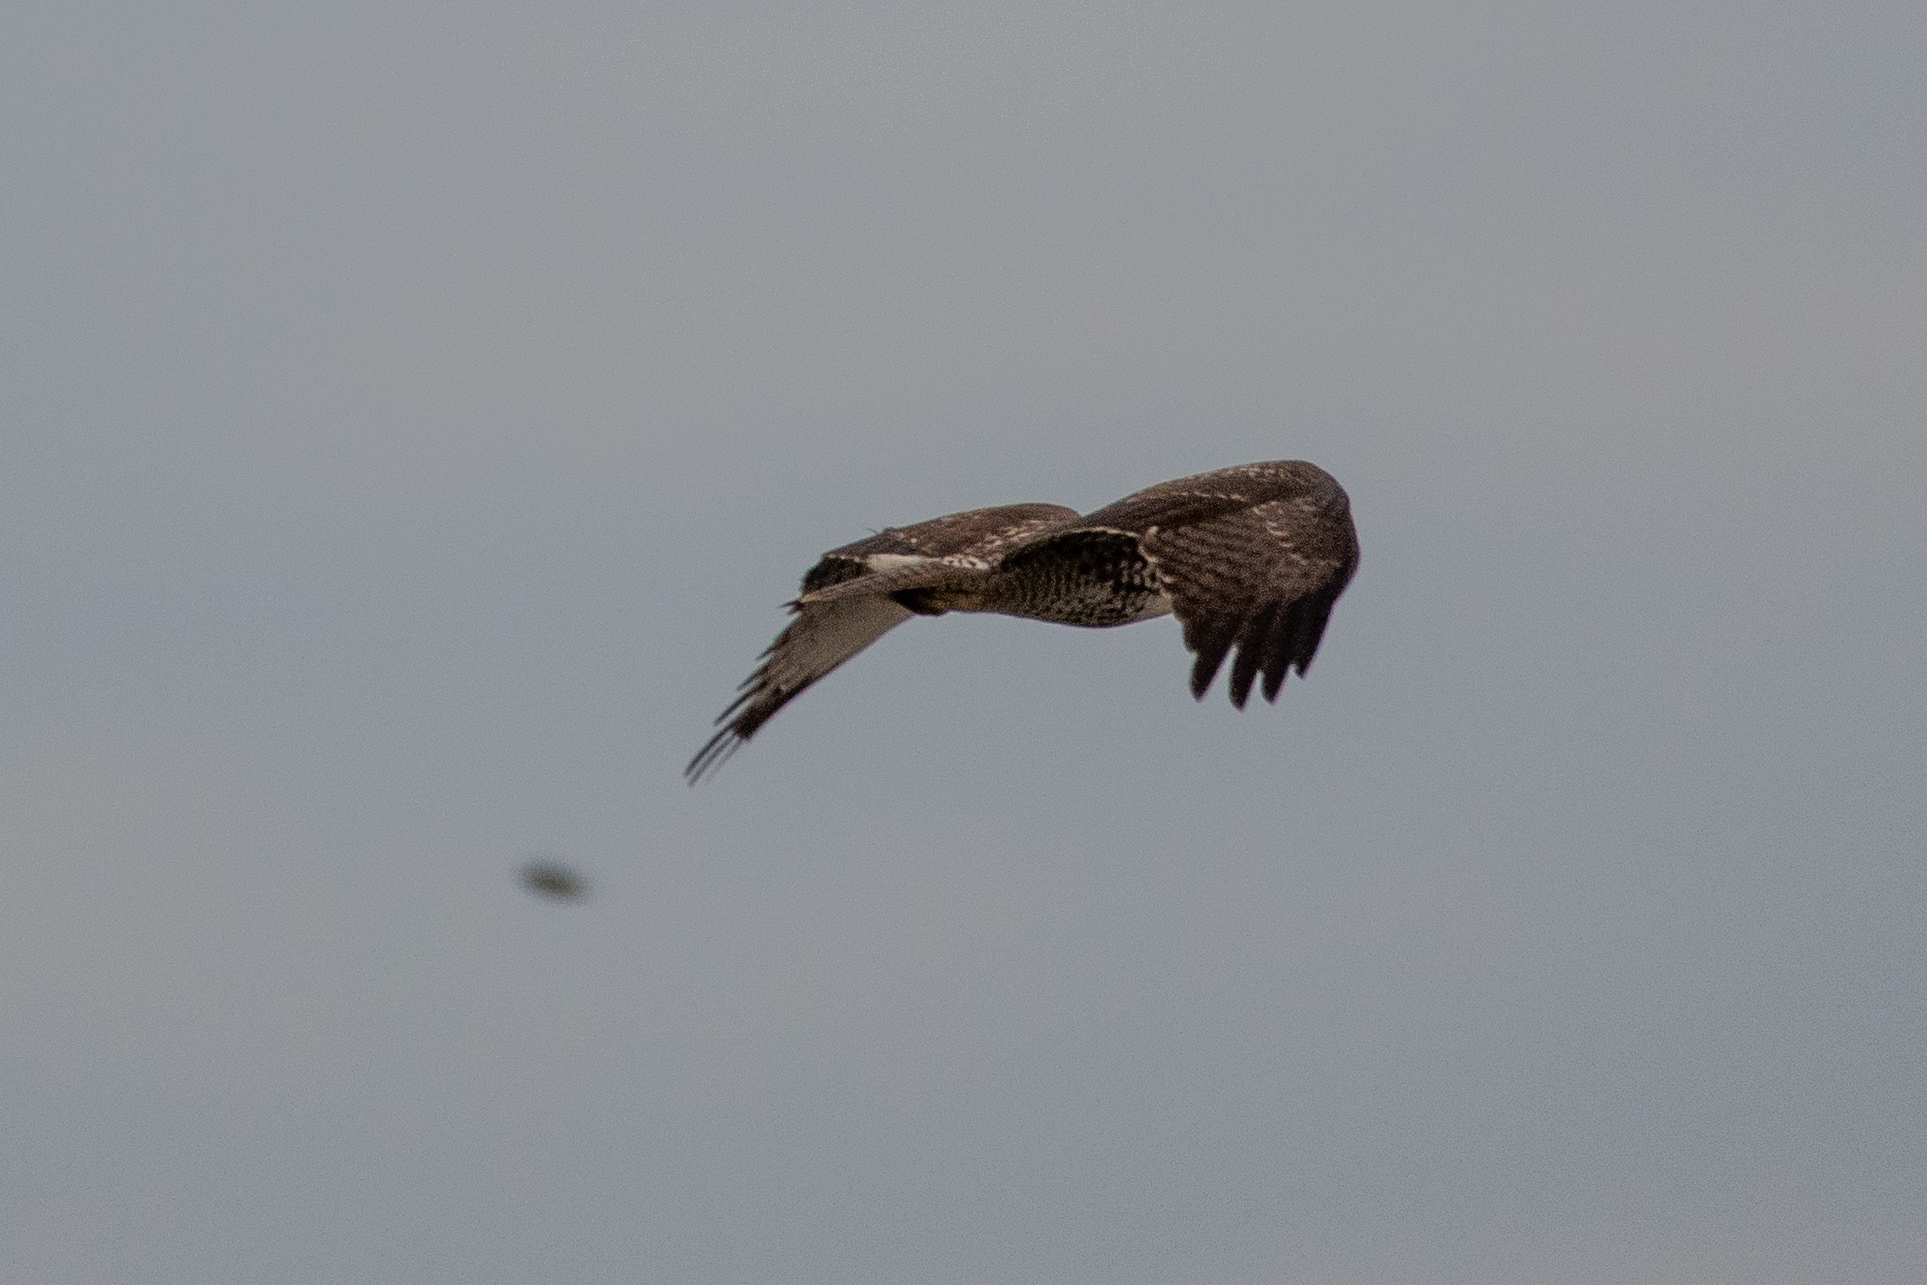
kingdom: Animalia
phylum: Chordata
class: Aves
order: Accipitriformes
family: Accipitridae
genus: Buteo
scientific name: Buteo jamaicensis
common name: Red-tailed hawk
